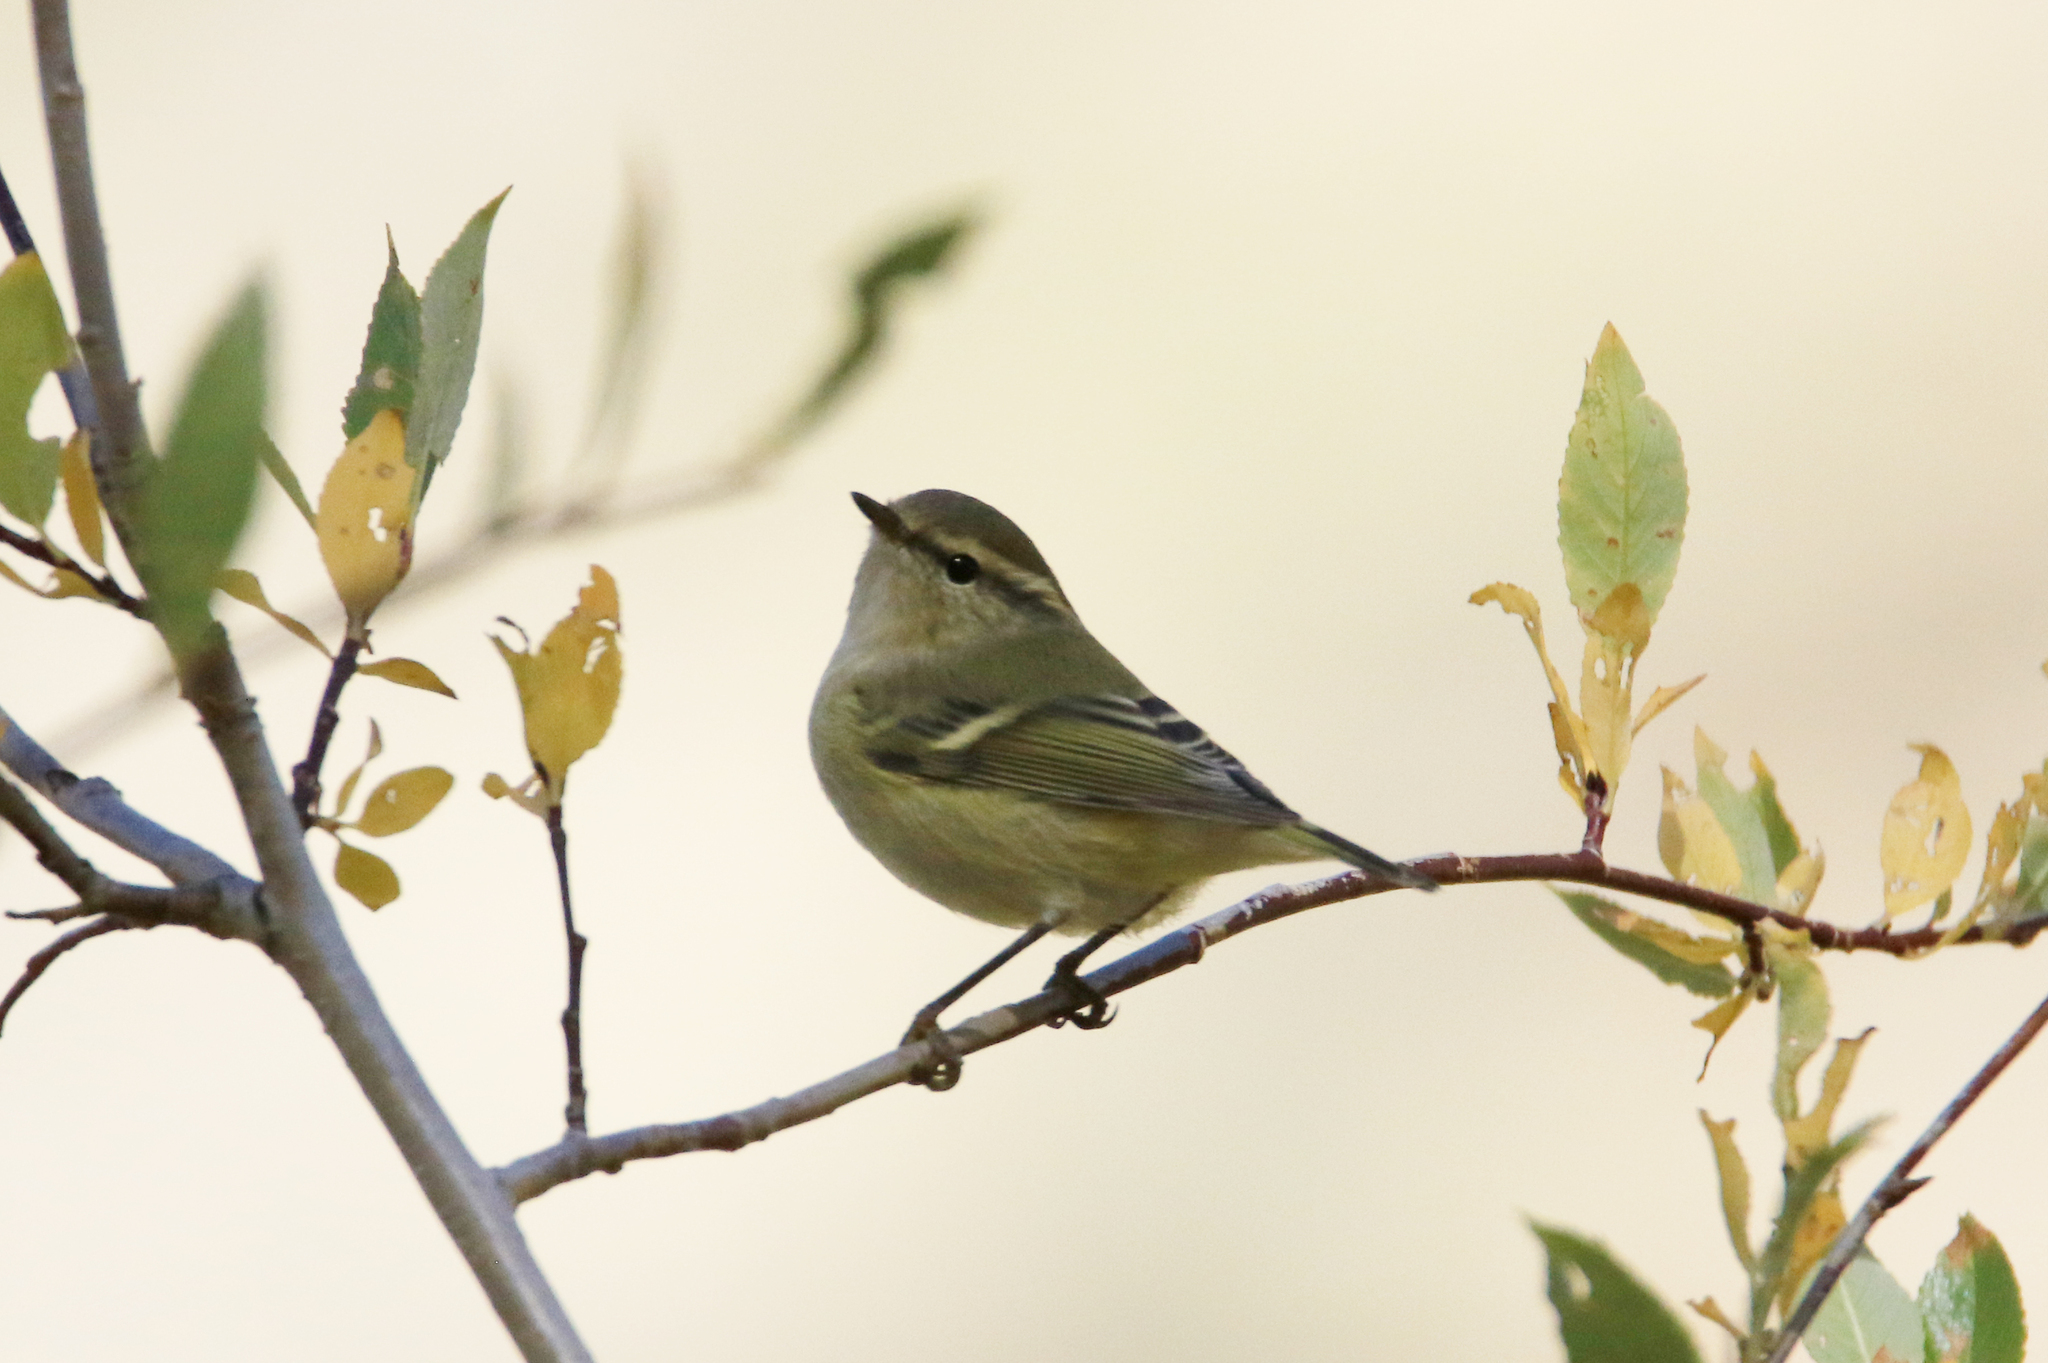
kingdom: Animalia
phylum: Chordata
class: Aves
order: Passeriformes
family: Phylloscopidae
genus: Phylloscopus
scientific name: Phylloscopus humei
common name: Hume's leaf warbler
